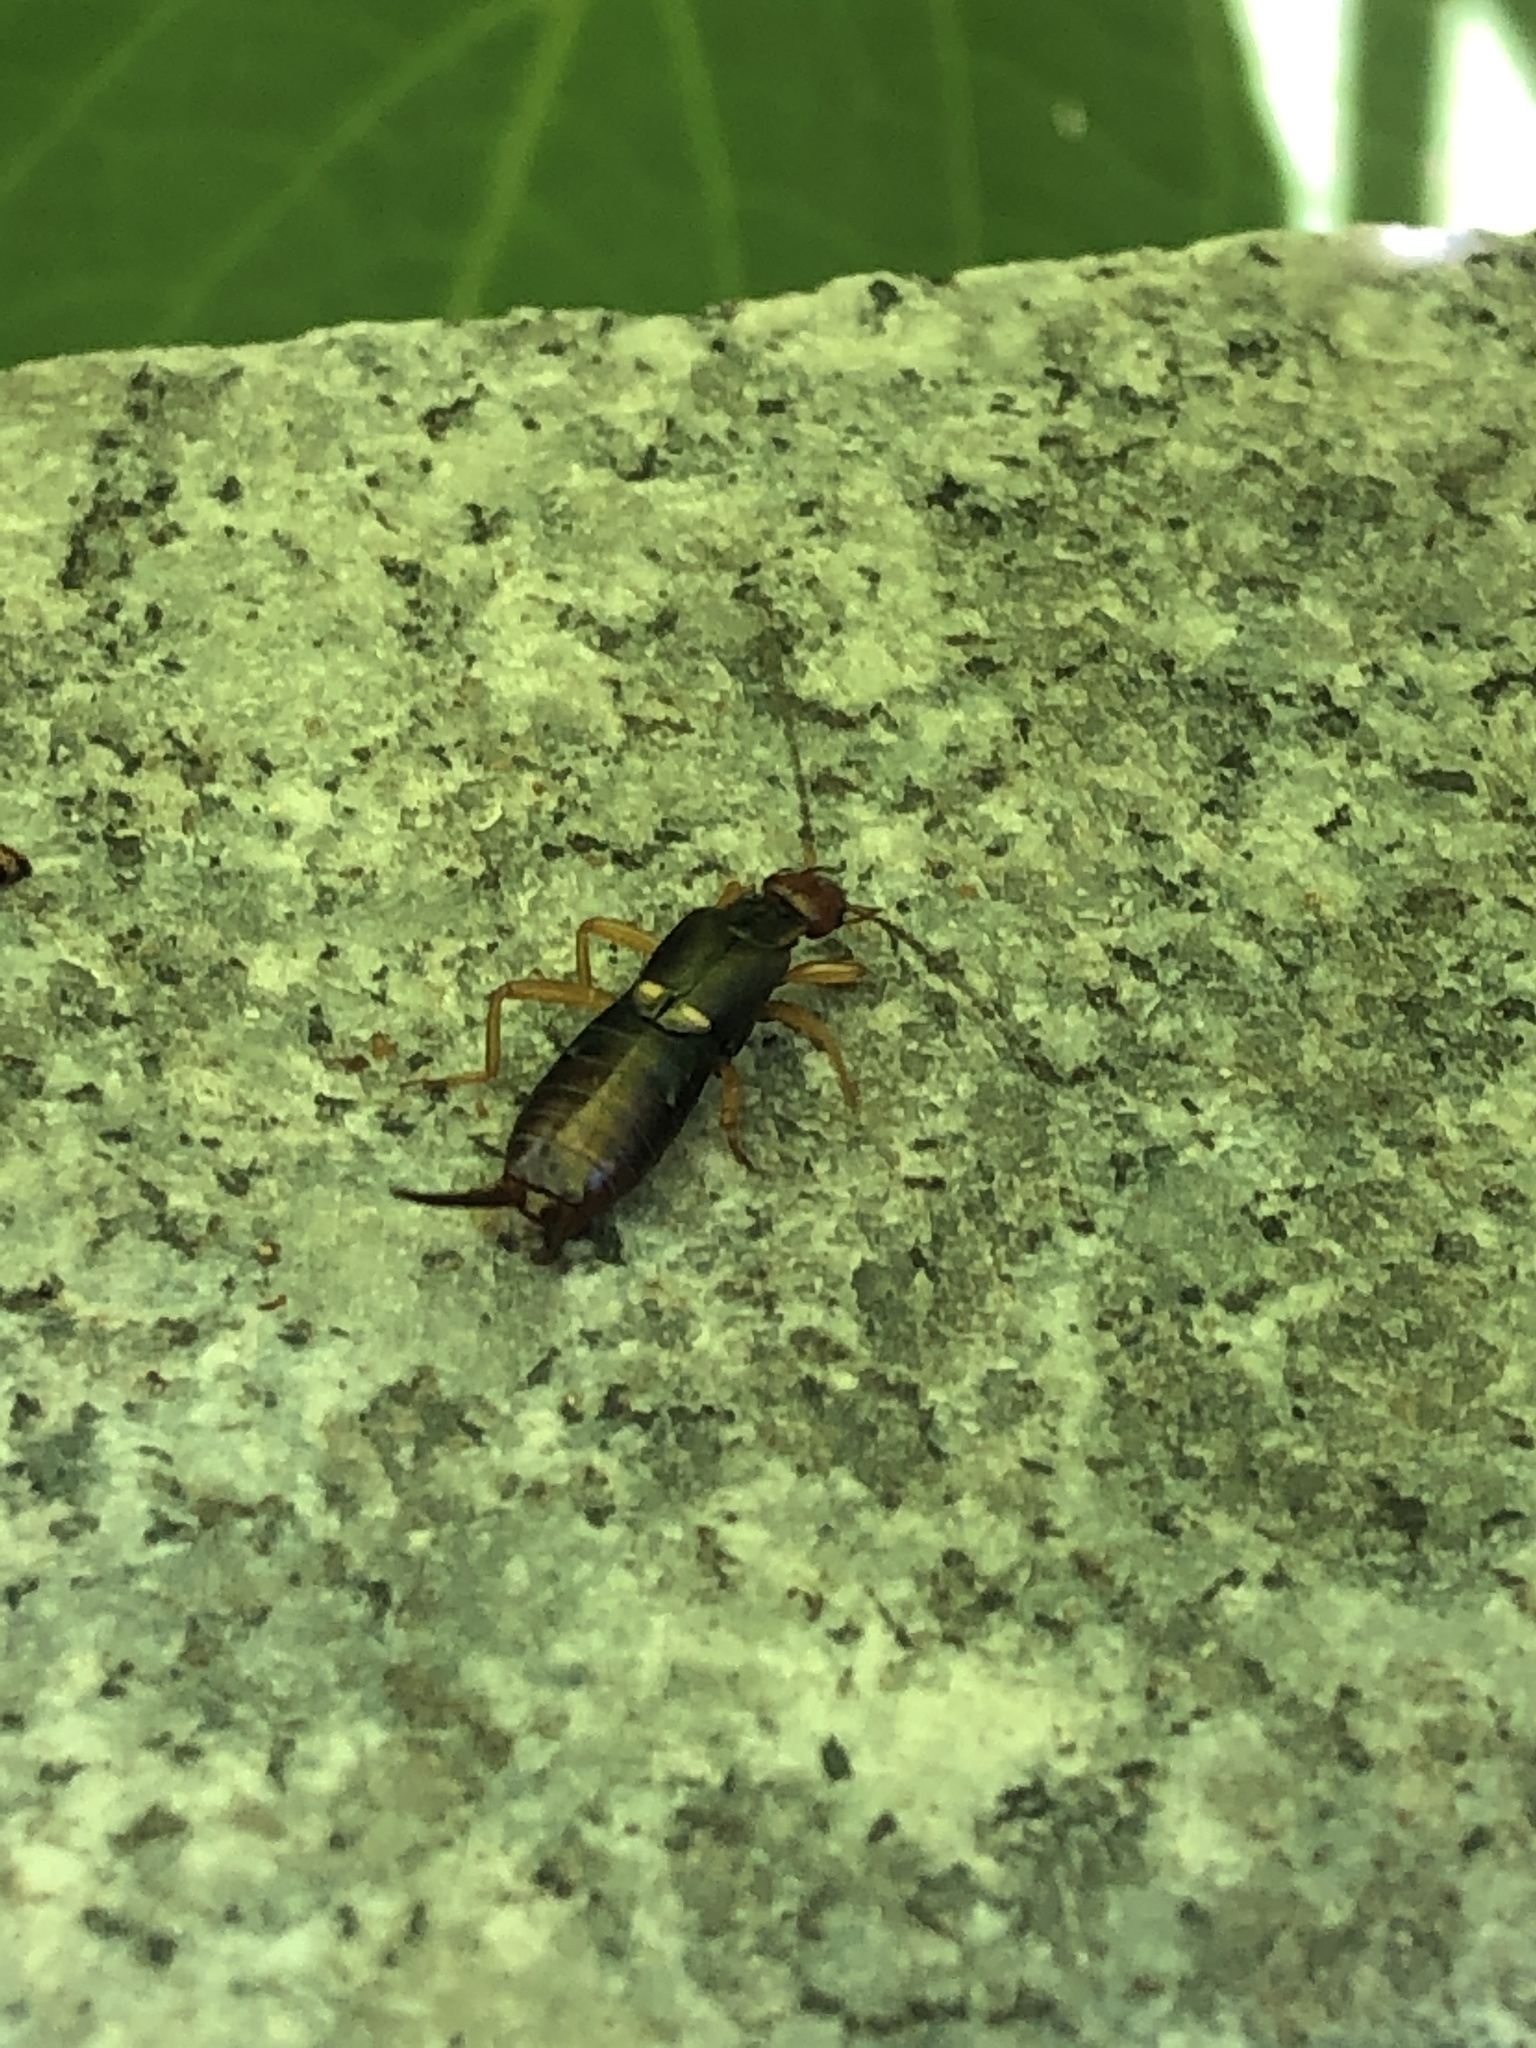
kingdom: Animalia
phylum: Arthropoda
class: Insecta
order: Dermaptera
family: Forficulidae
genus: Anechura
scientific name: Anechura japonica
